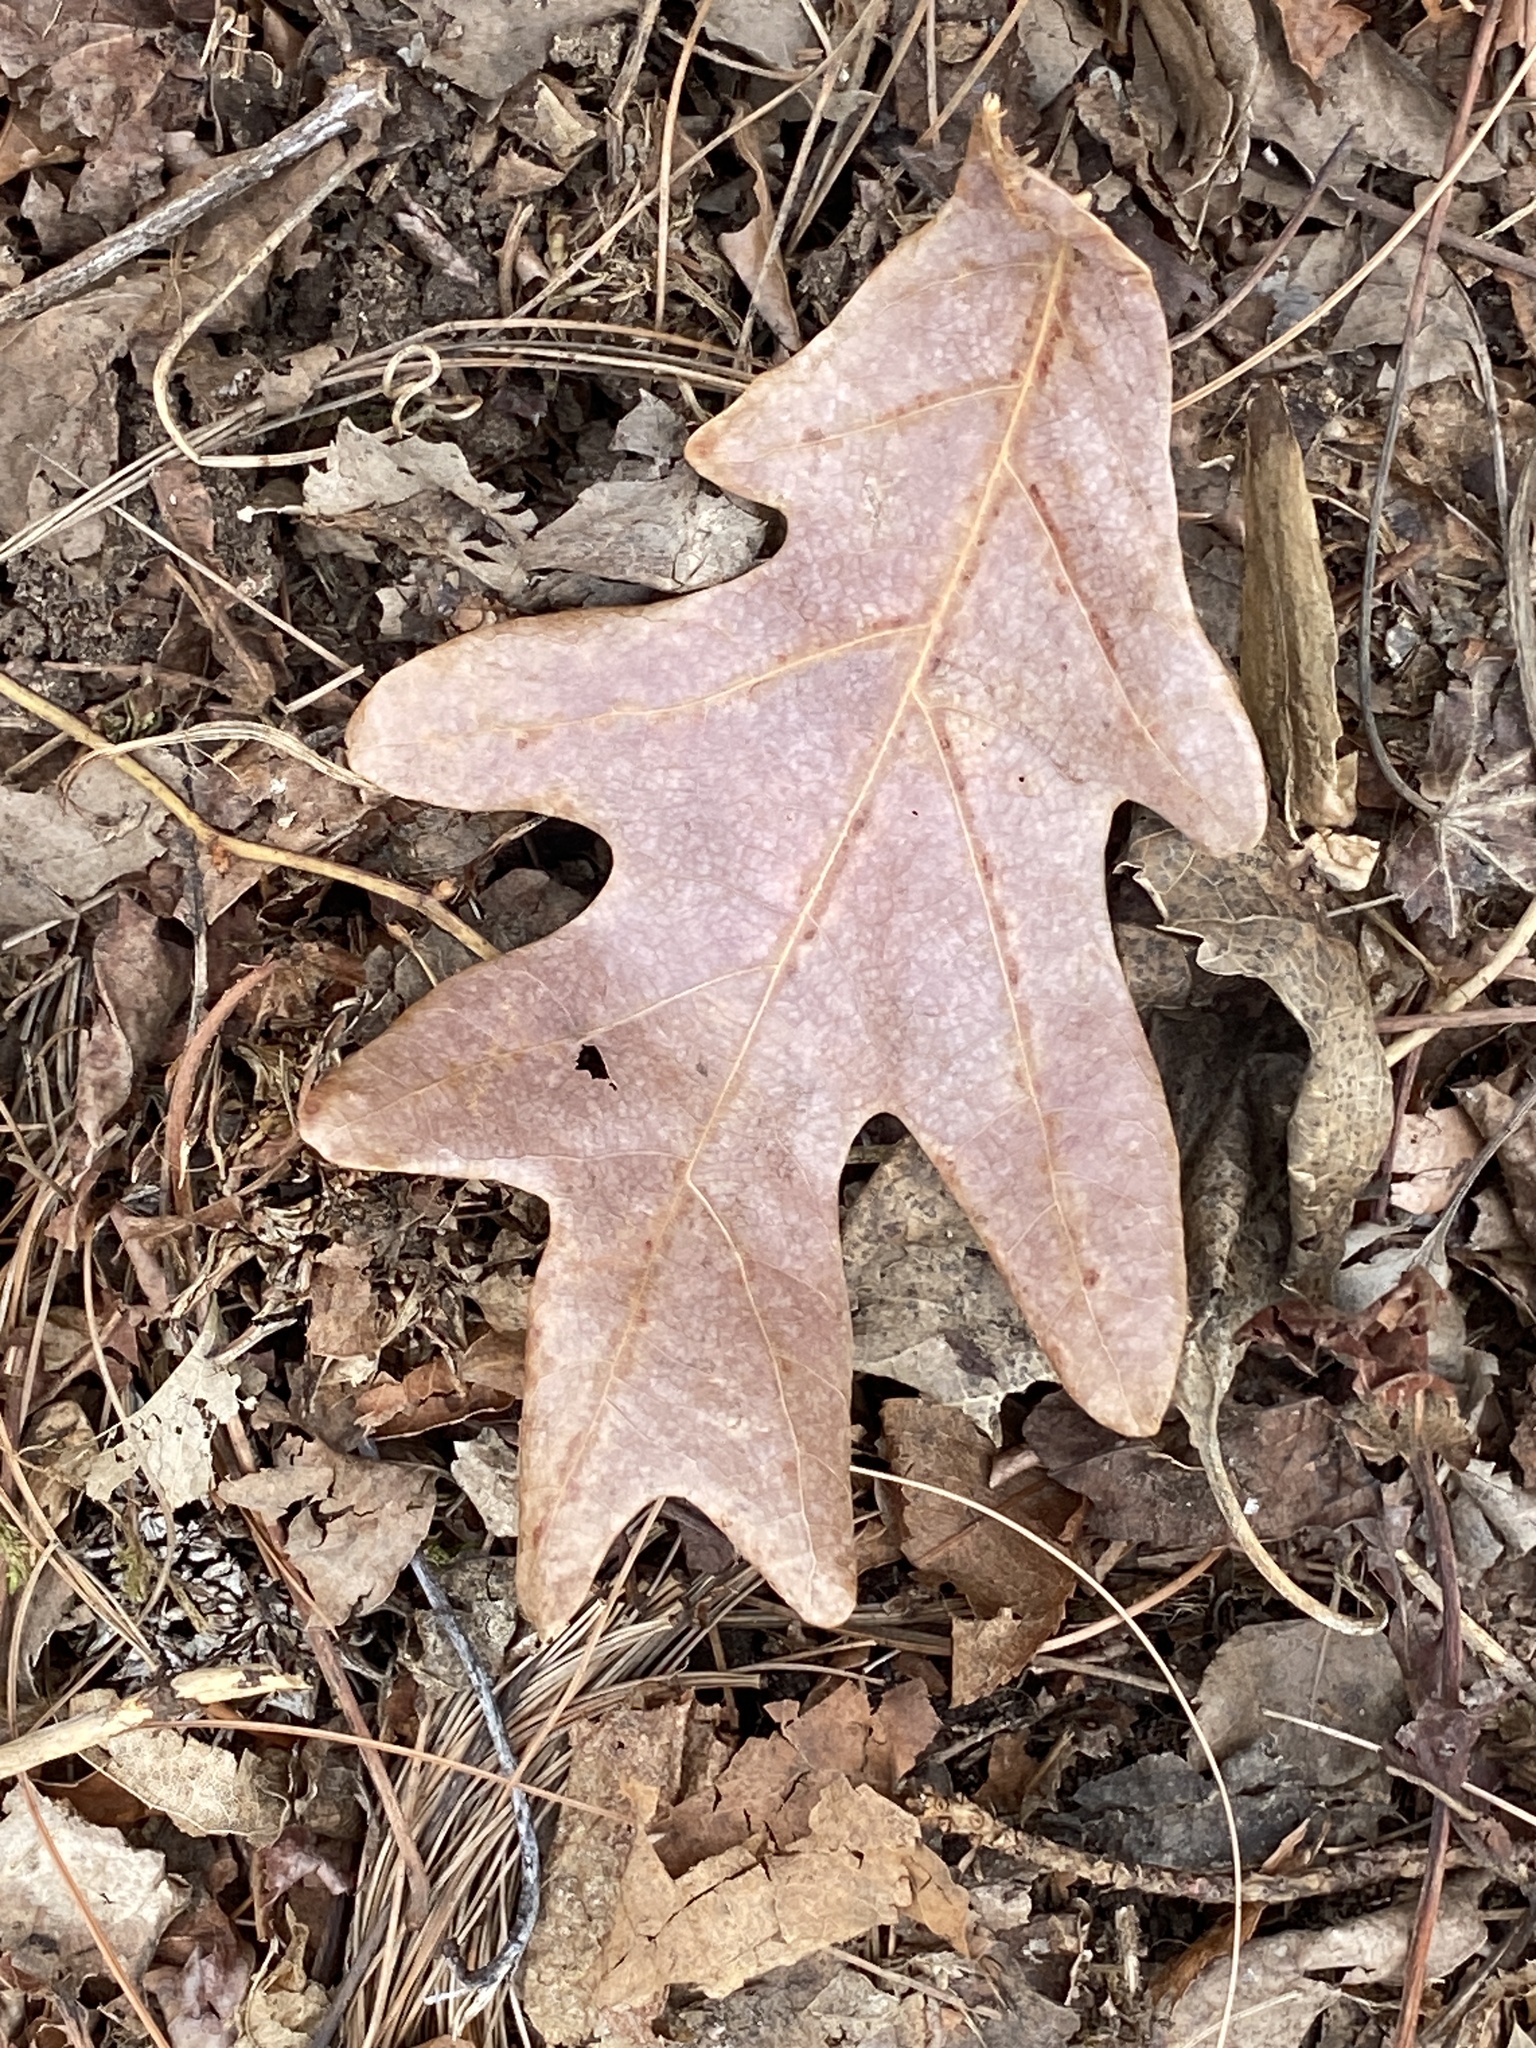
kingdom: Plantae
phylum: Tracheophyta
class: Magnoliopsida
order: Fagales
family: Fagaceae
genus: Quercus
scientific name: Quercus alba
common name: White oak
